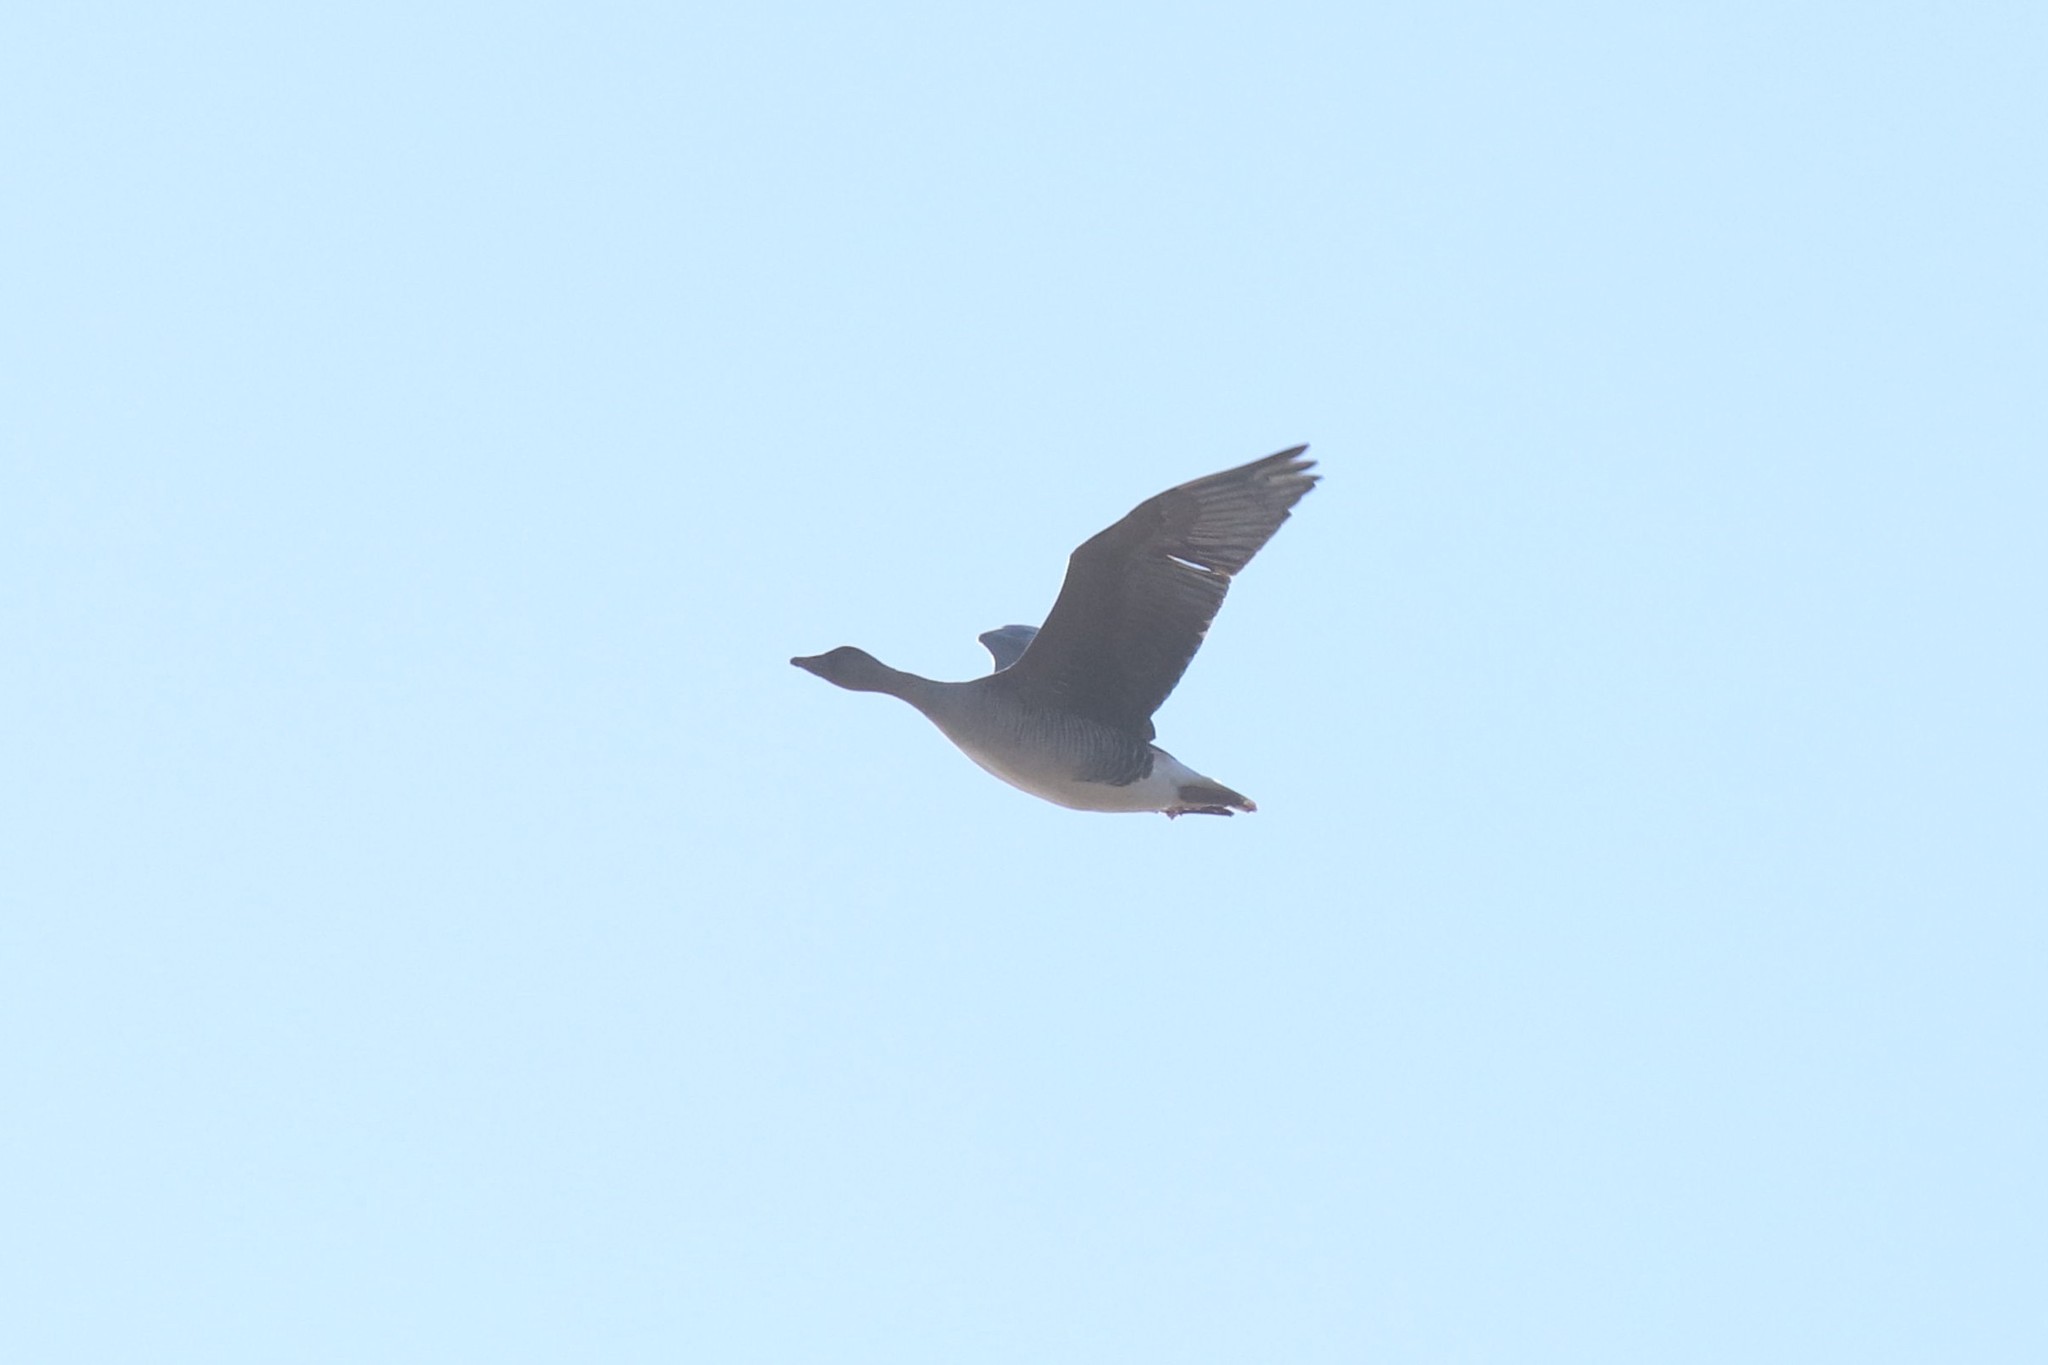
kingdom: Animalia
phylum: Chordata
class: Aves
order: Anseriformes
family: Anatidae
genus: Anser
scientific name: Anser fabalis
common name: Bean goose
